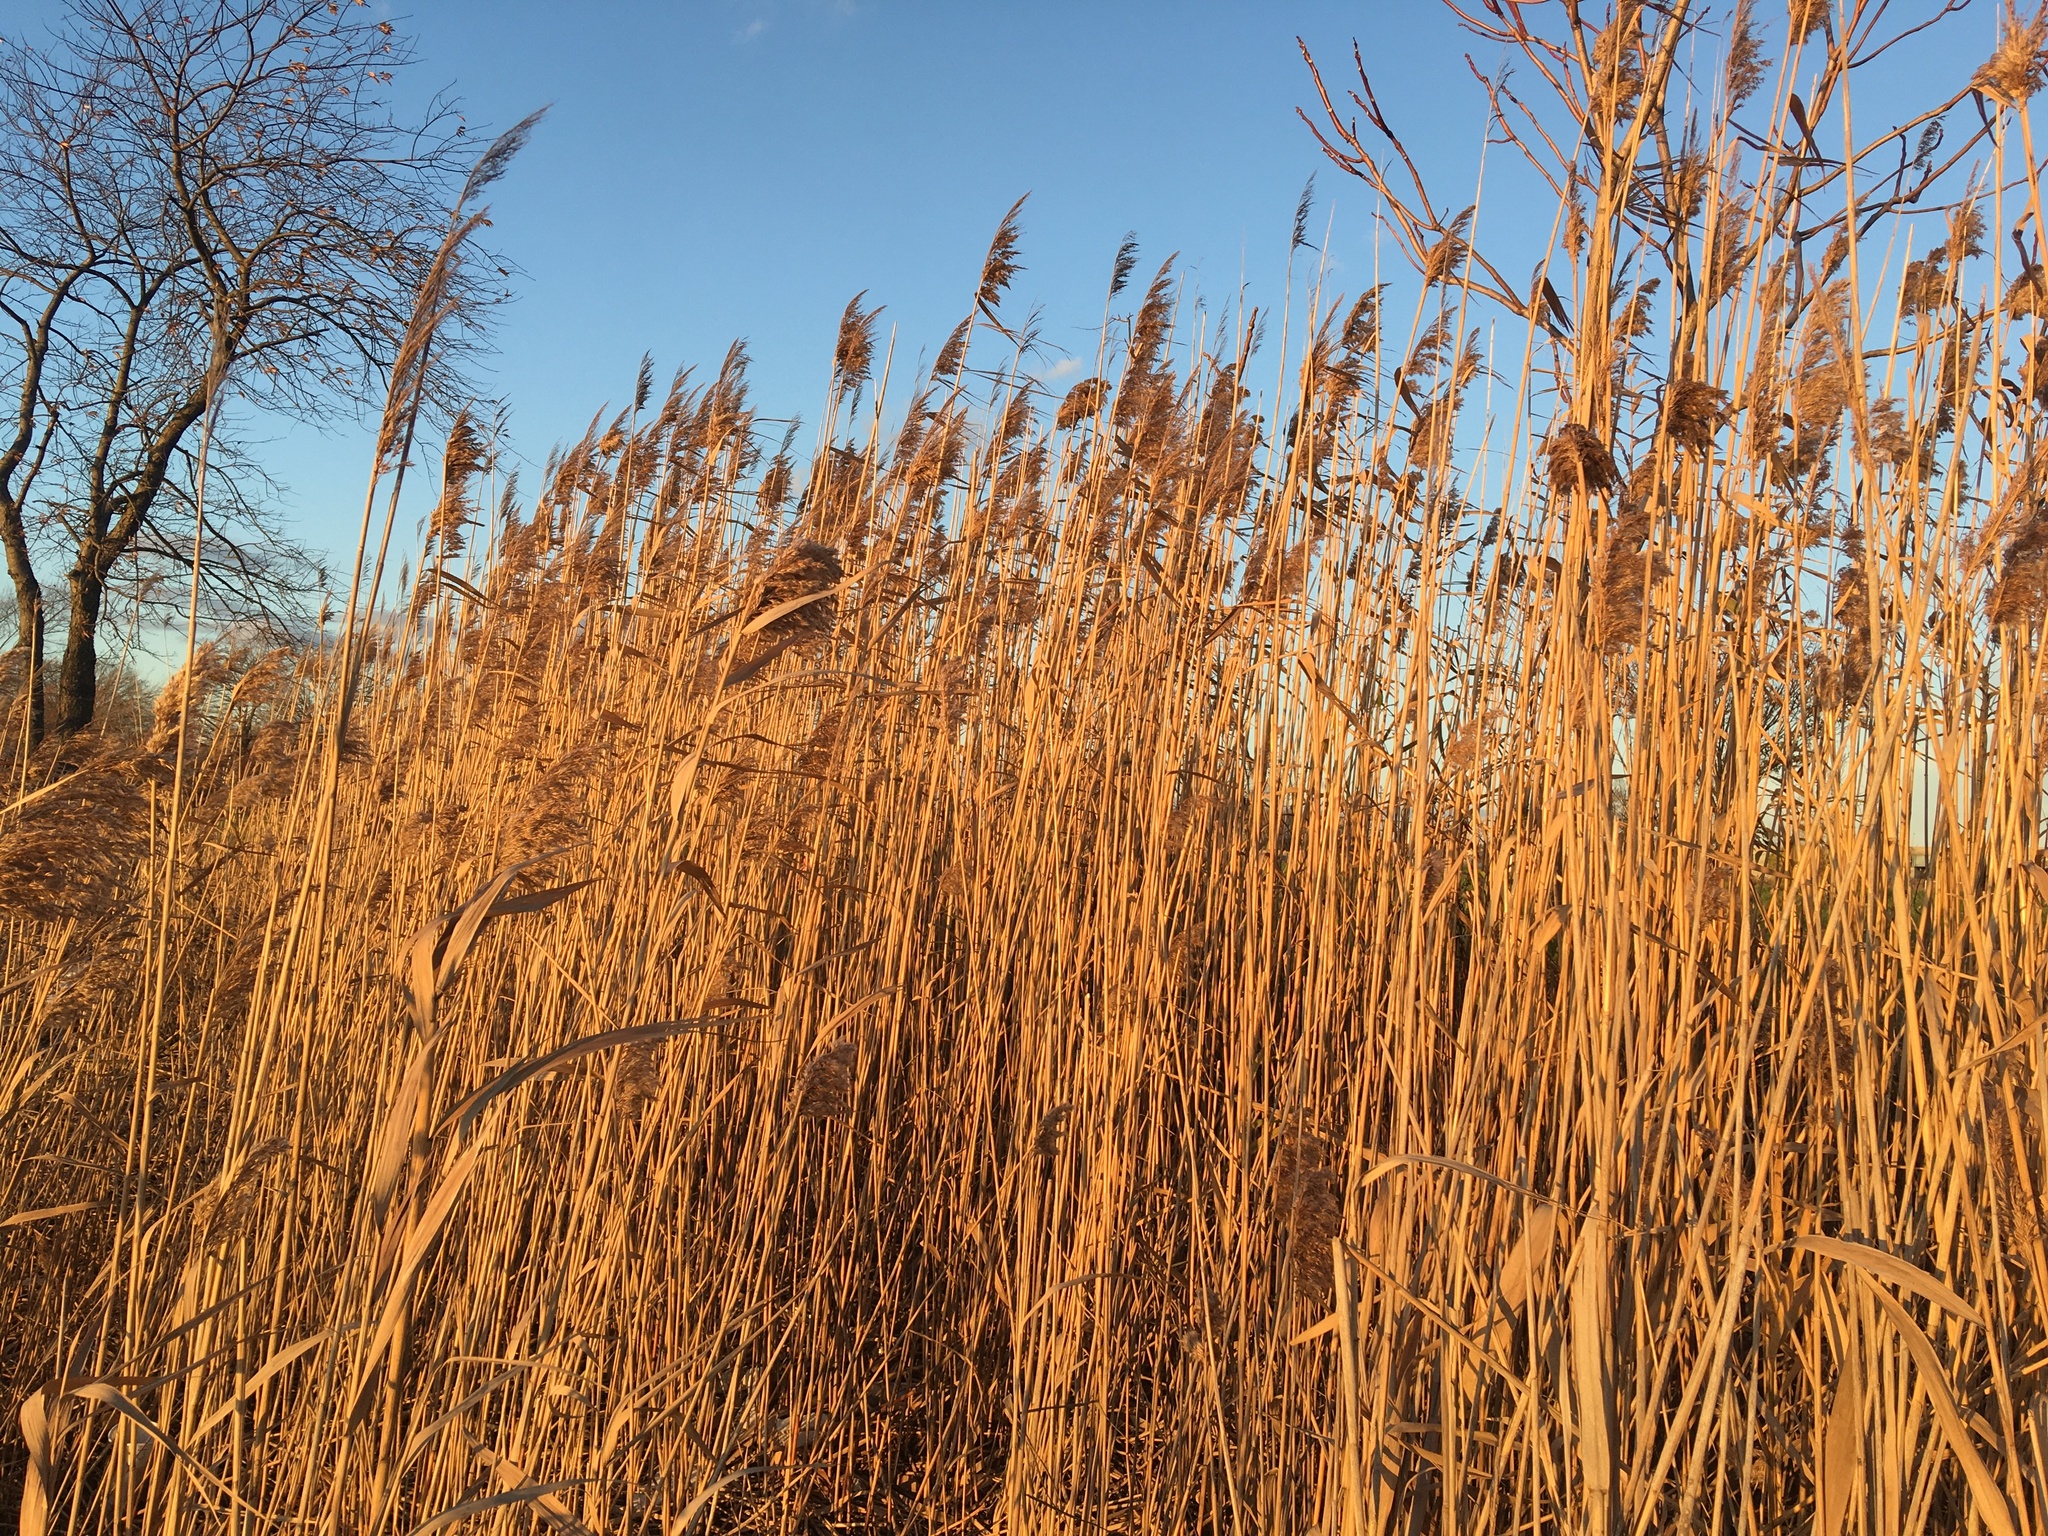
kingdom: Plantae
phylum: Tracheophyta
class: Liliopsida
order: Poales
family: Poaceae
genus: Phragmites
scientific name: Phragmites australis
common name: Common reed
